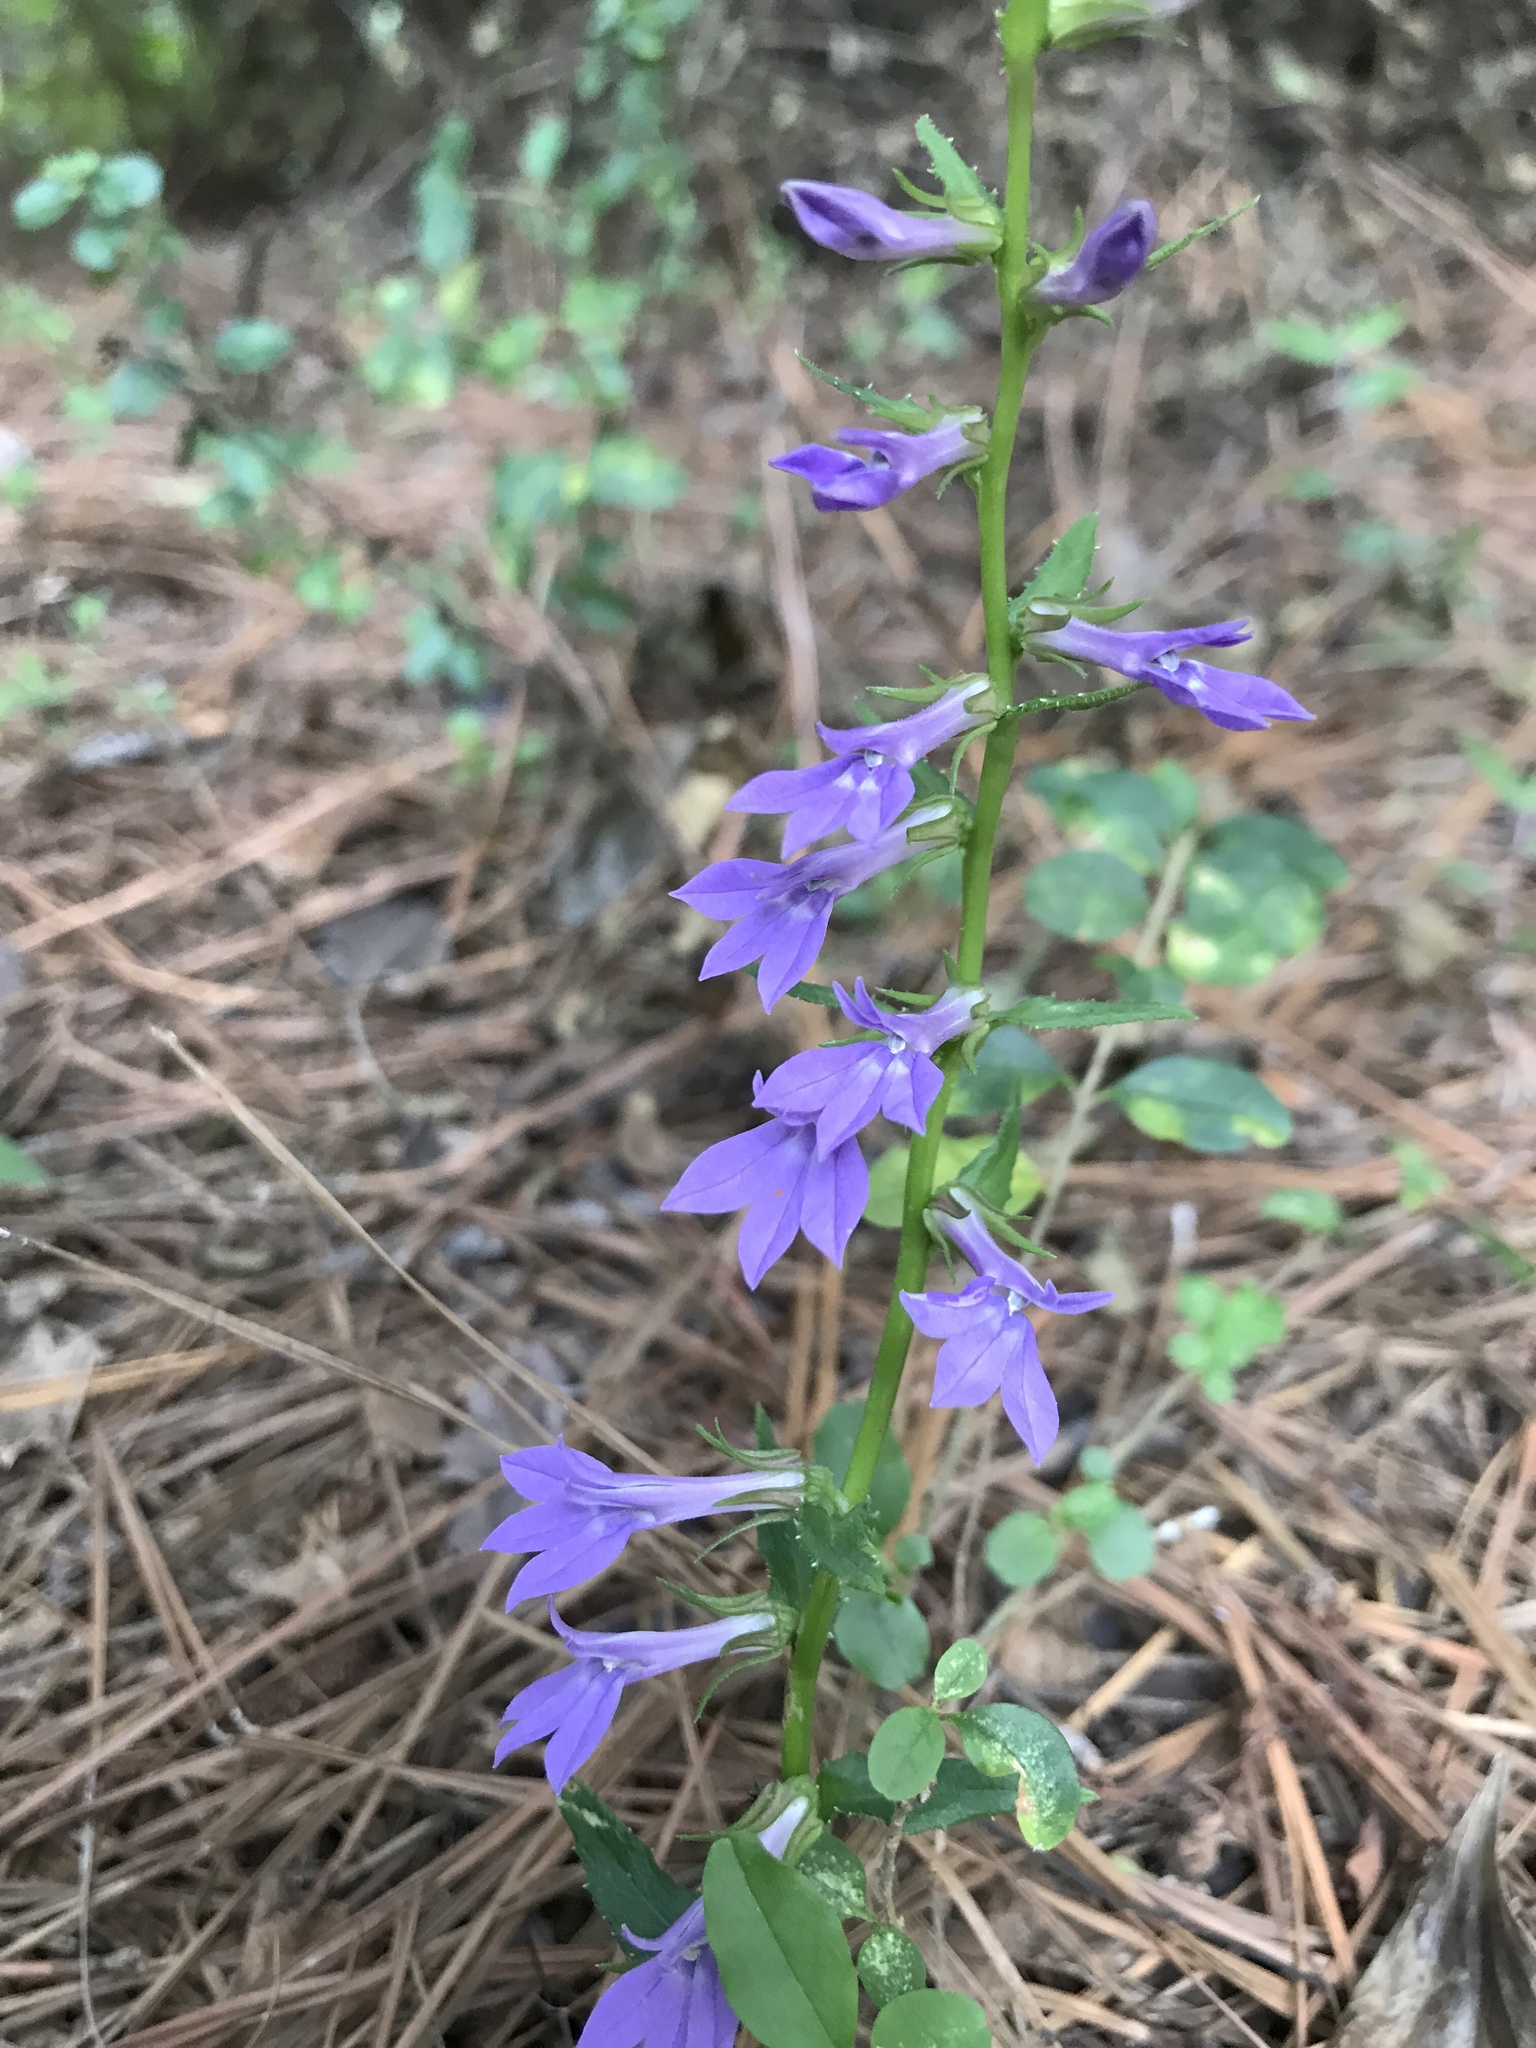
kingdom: Plantae
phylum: Tracheophyta
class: Magnoliopsida
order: Asterales
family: Campanulaceae
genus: Lobelia
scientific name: Lobelia puberula
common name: Purple dewdrop
